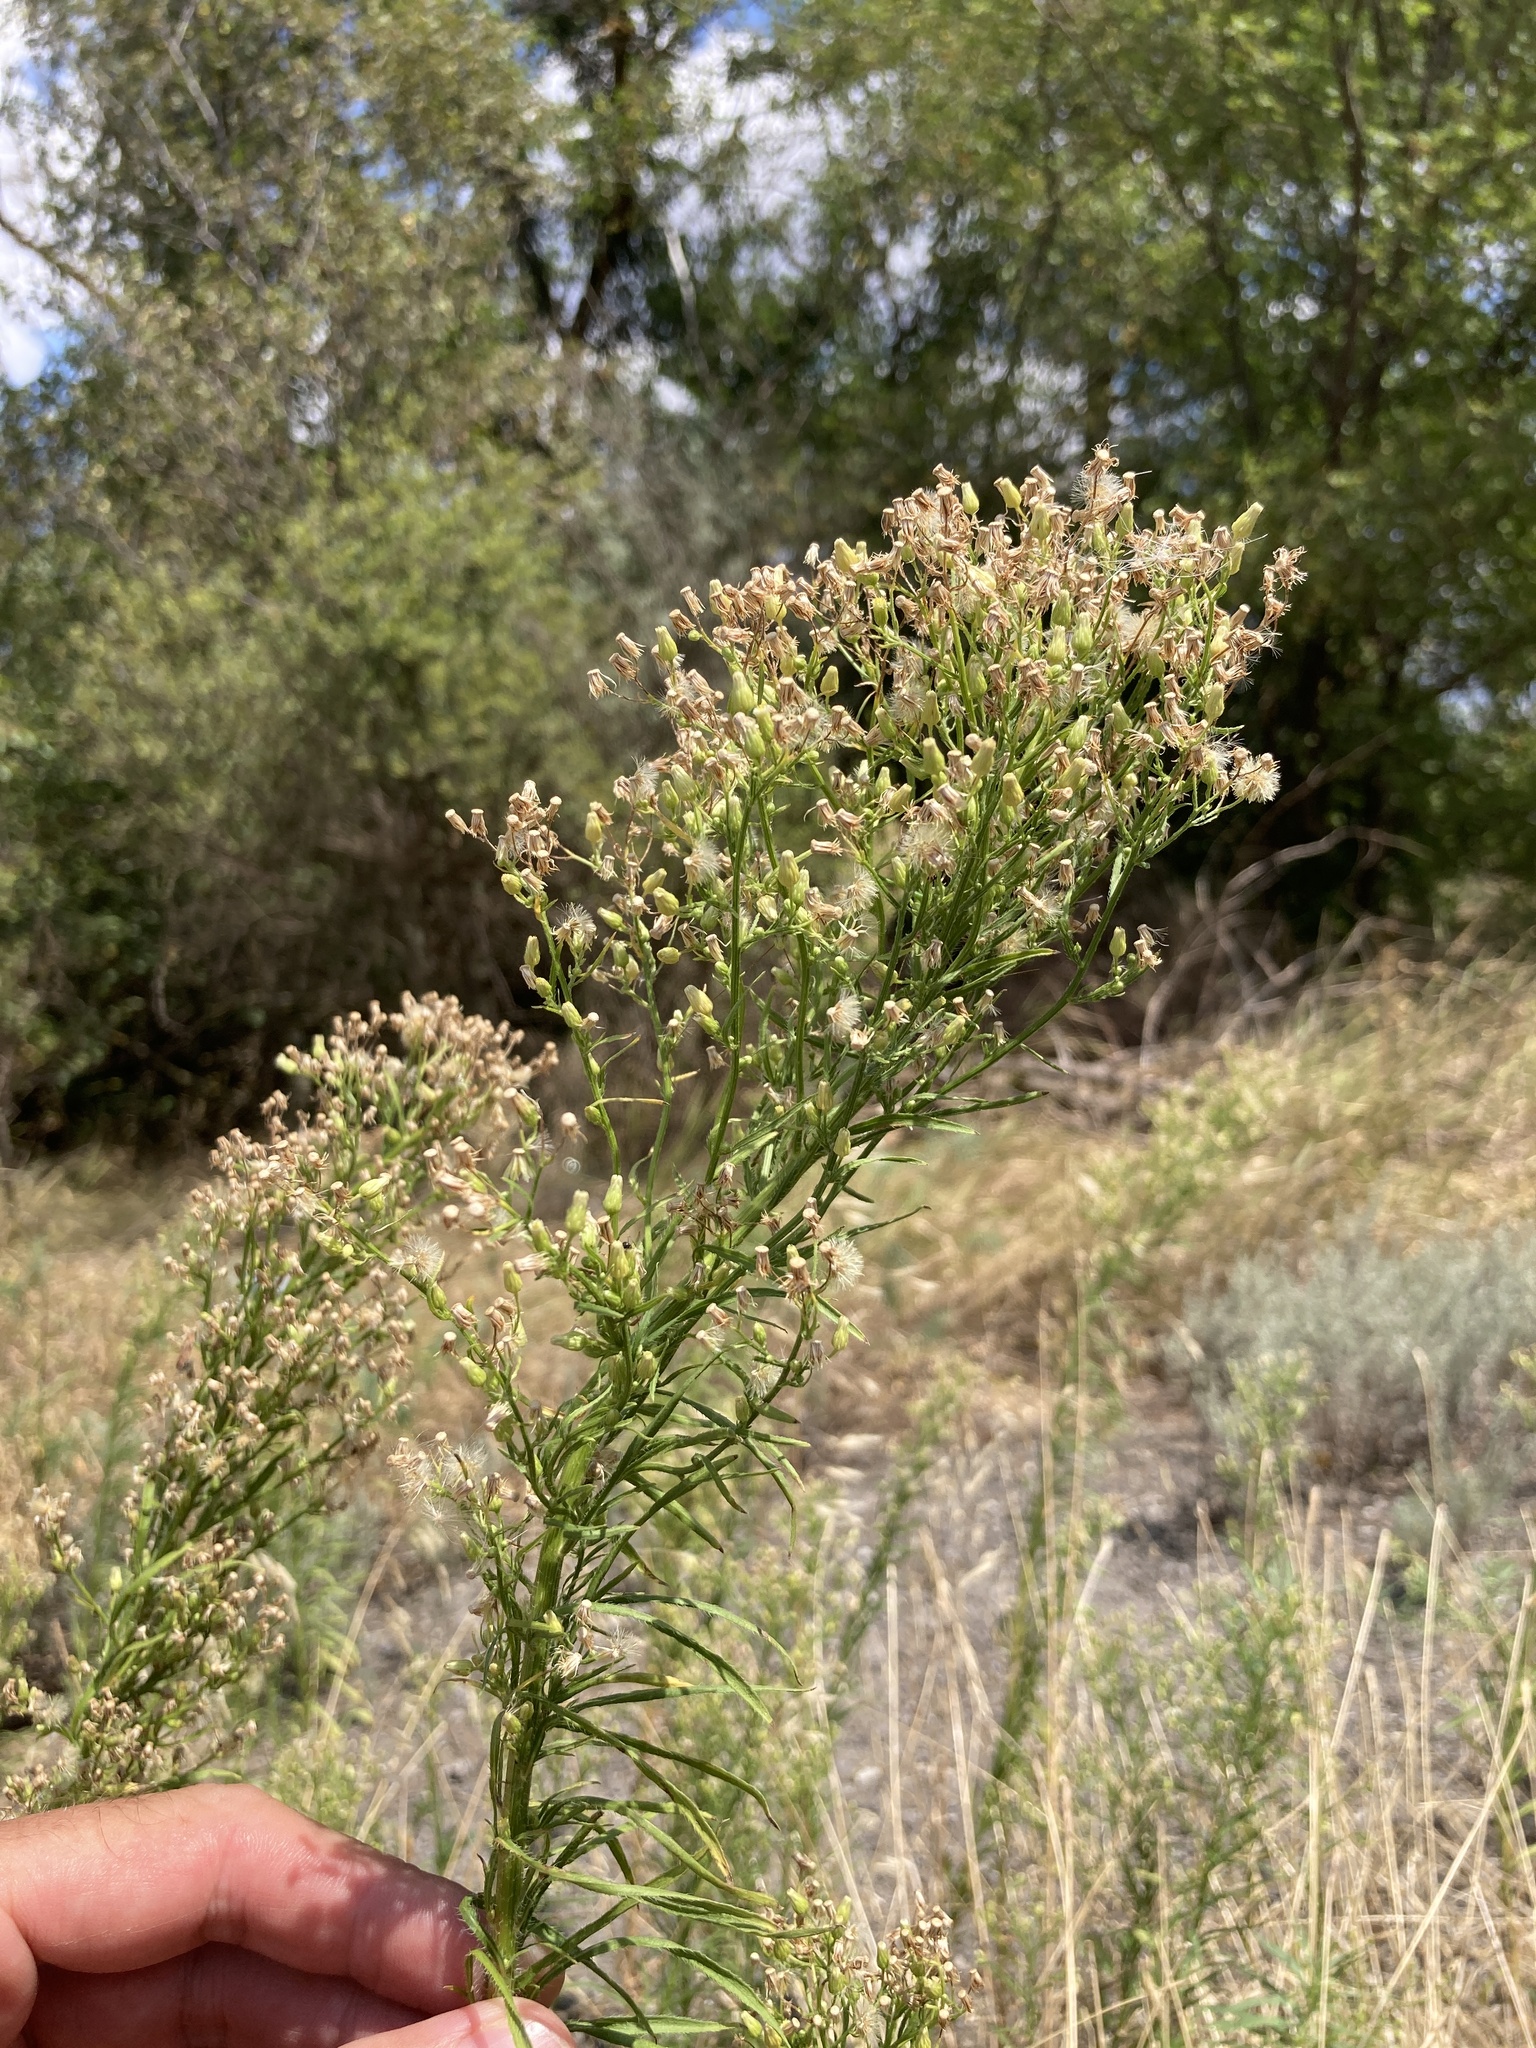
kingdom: Plantae
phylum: Tracheophyta
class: Magnoliopsida
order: Asterales
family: Asteraceae
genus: Erigeron
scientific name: Erigeron canadensis
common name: Canadian fleabane
